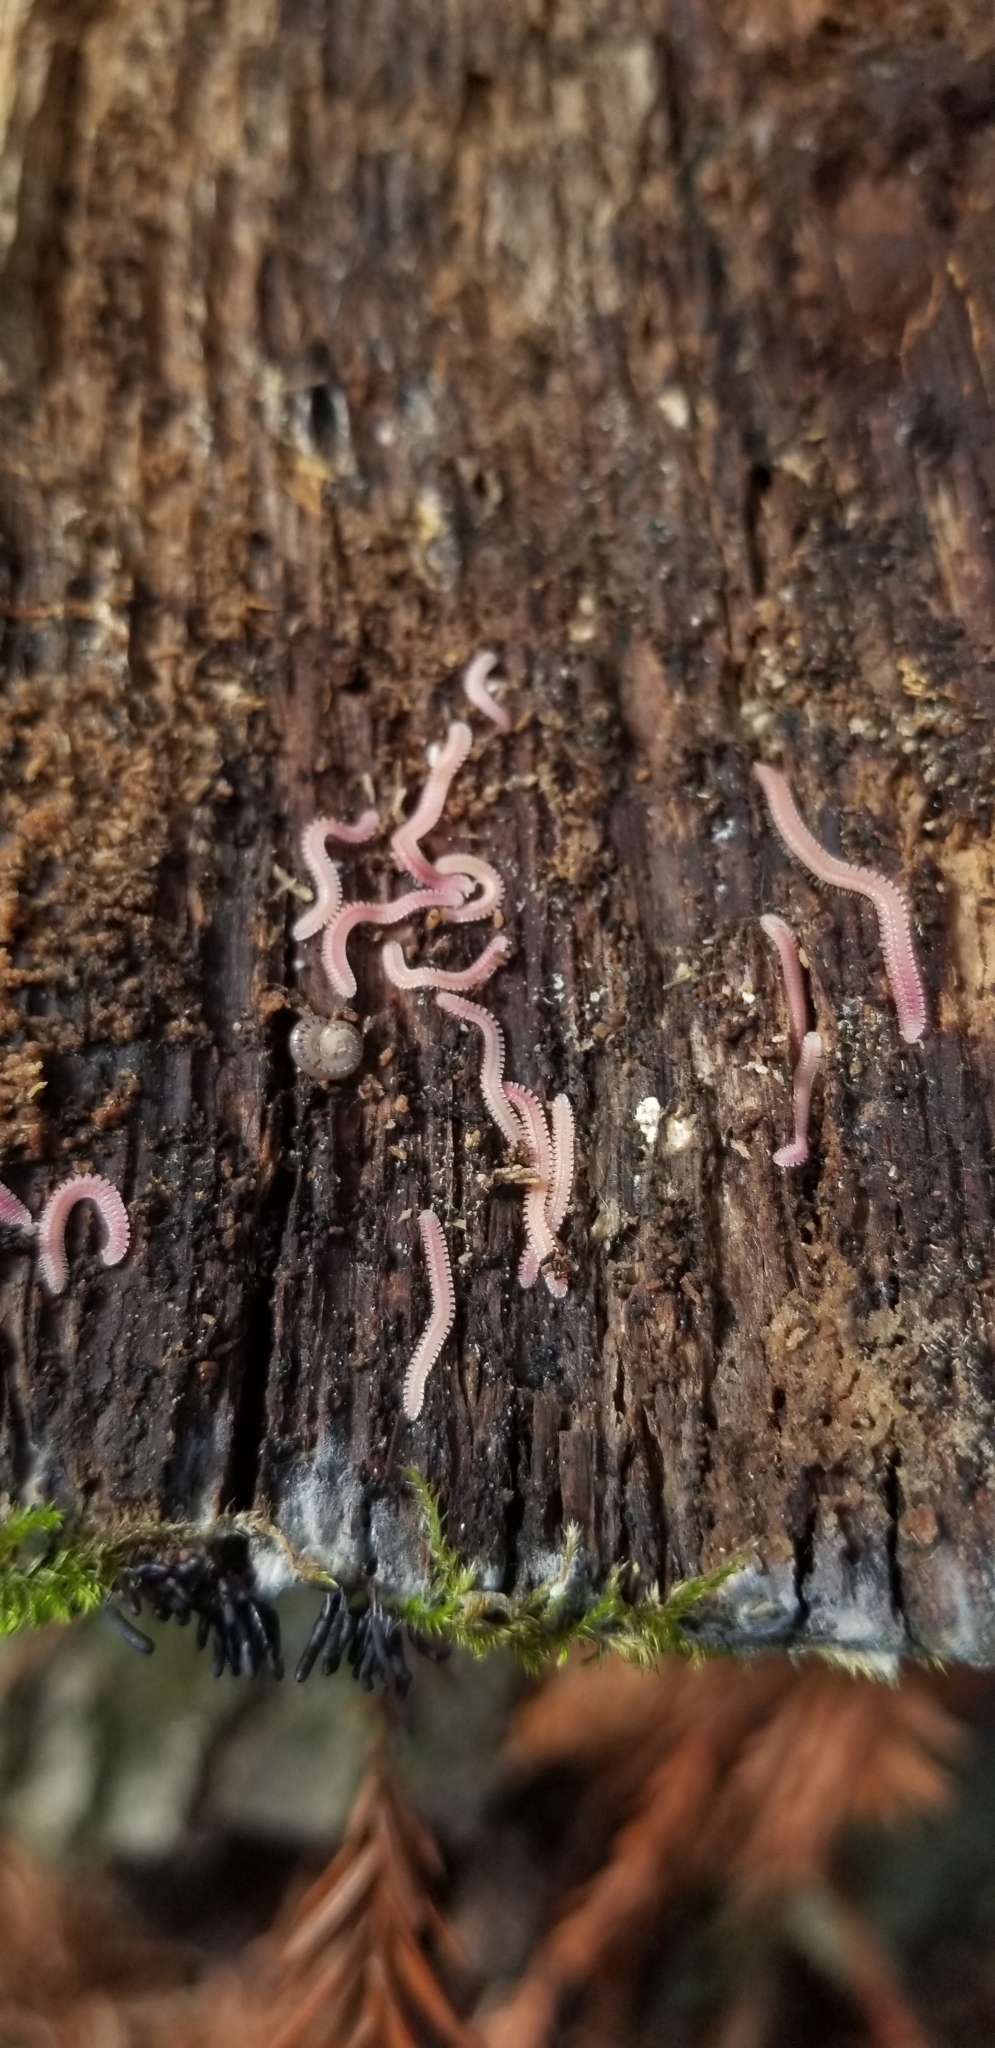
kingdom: Animalia
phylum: Arthropoda
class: Diplopoda
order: Platydesmida
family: Andrognathidae
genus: Gosodesmus
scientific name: Gosodesmus claremontus
